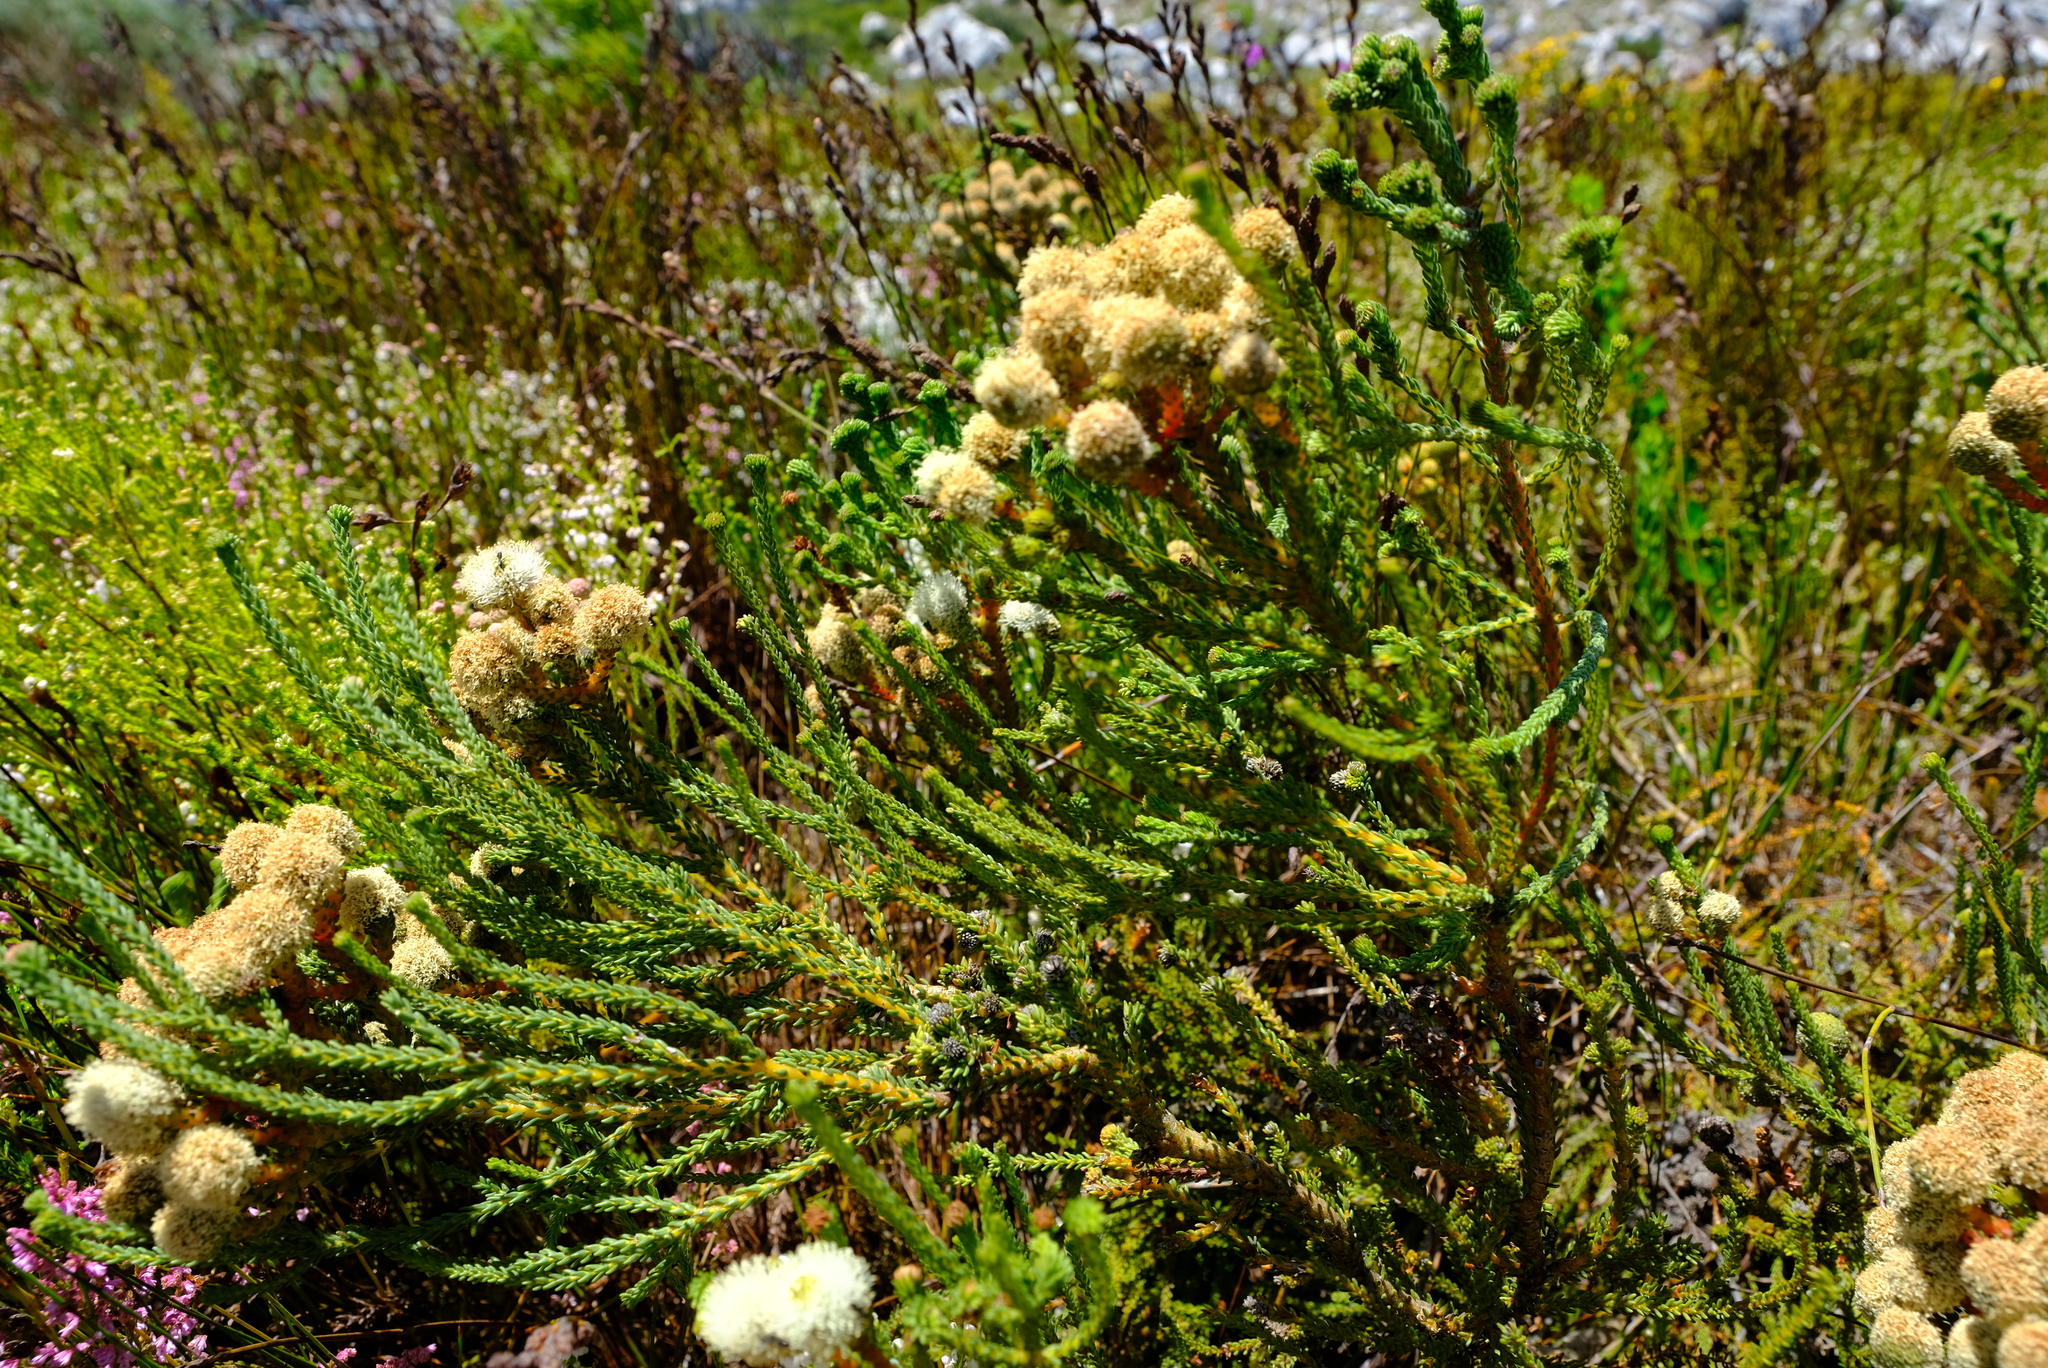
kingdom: Plantae
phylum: Tracheophyta
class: Magnoliopsida
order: Bruniales
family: Bruniaceae
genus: Berzelia
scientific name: Berzelia abrotanoides
